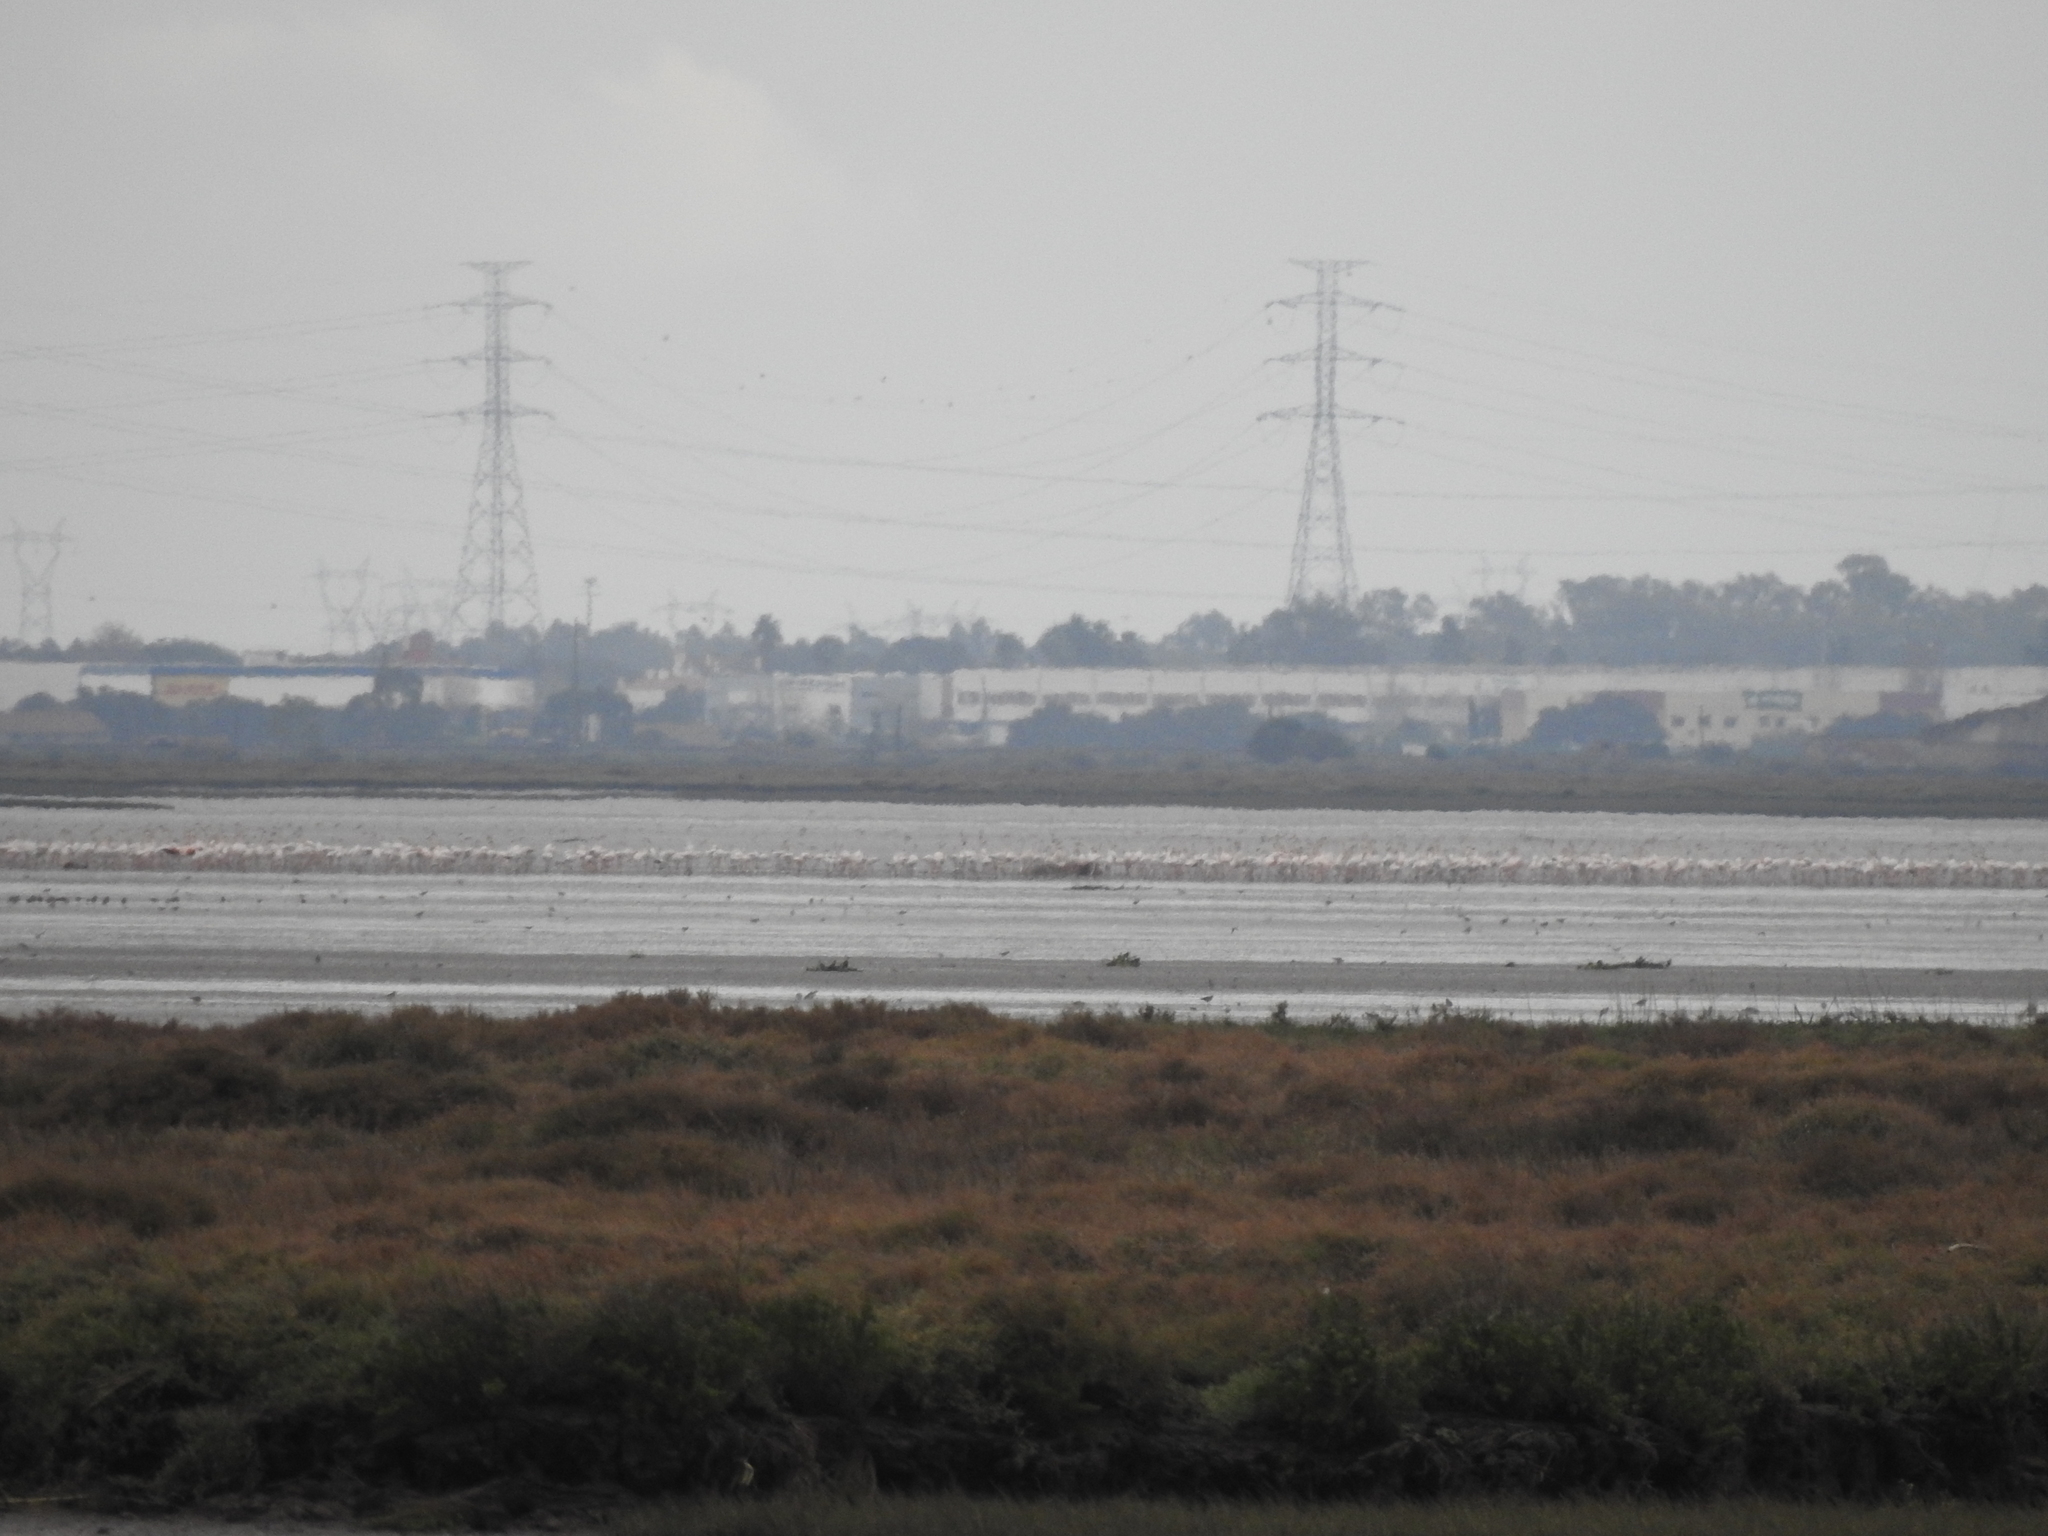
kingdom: Animalia
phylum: Chordata
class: Aves
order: Phoenicopteriformes
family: Phoenicopteridae
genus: Phoenicopterus
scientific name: Phoenicopterus roseus
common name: Greater flamingo
